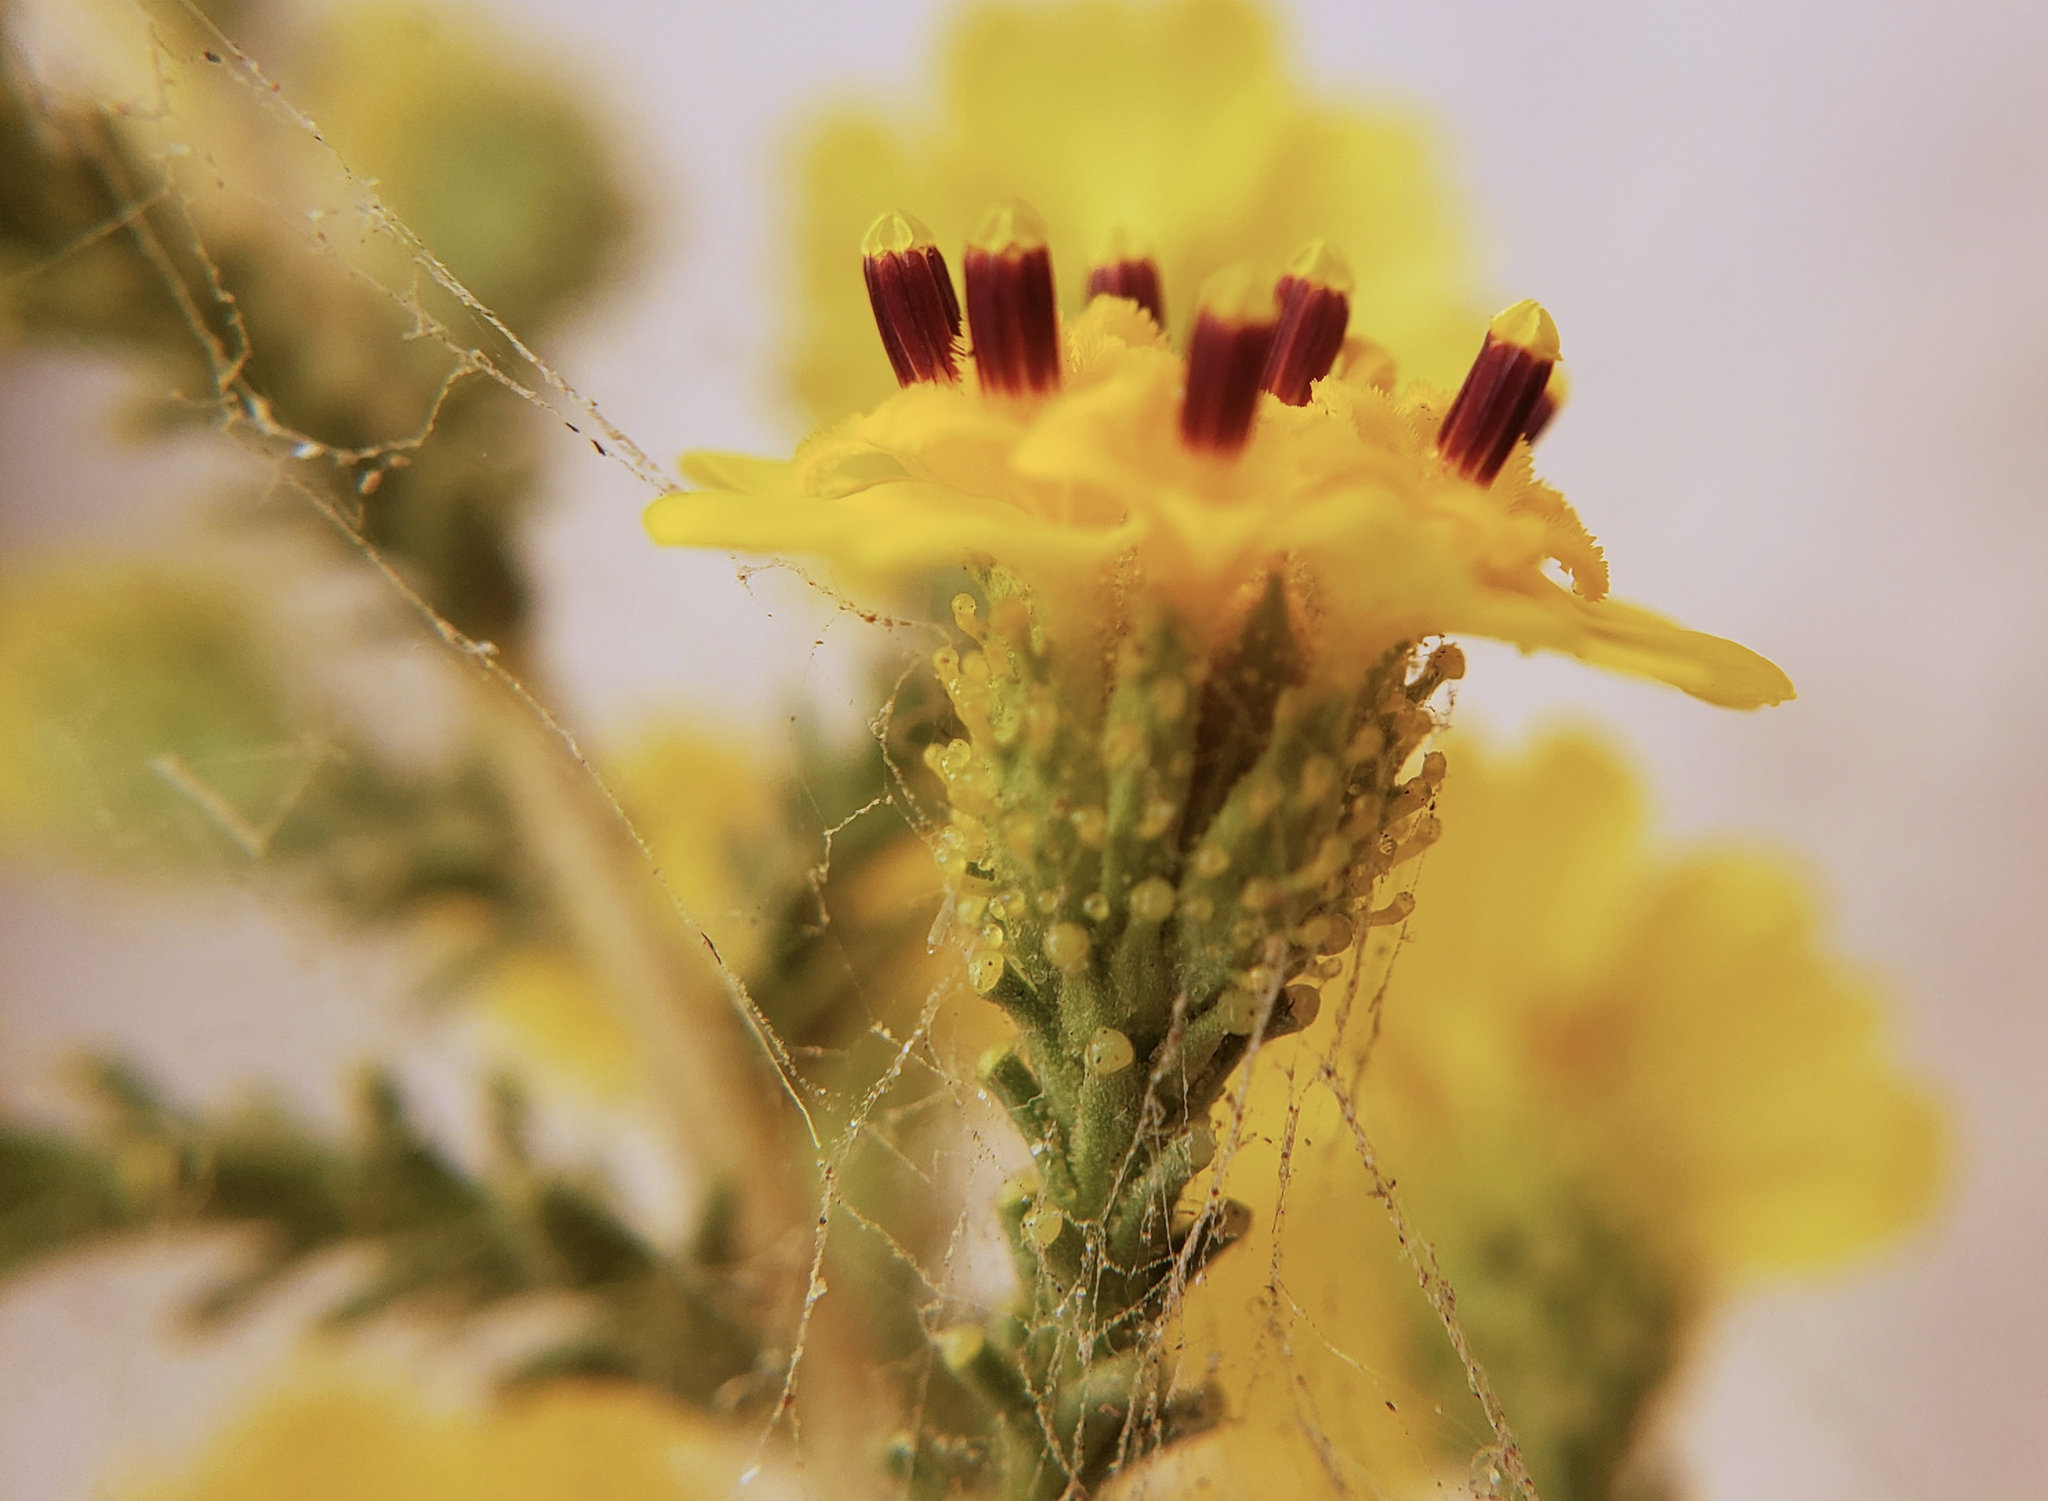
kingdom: Plantae
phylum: Tracheophyta
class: Magnoliopsida
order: Asterales
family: Asteraceae
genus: Holocarpha
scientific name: Holocarpha virgata
